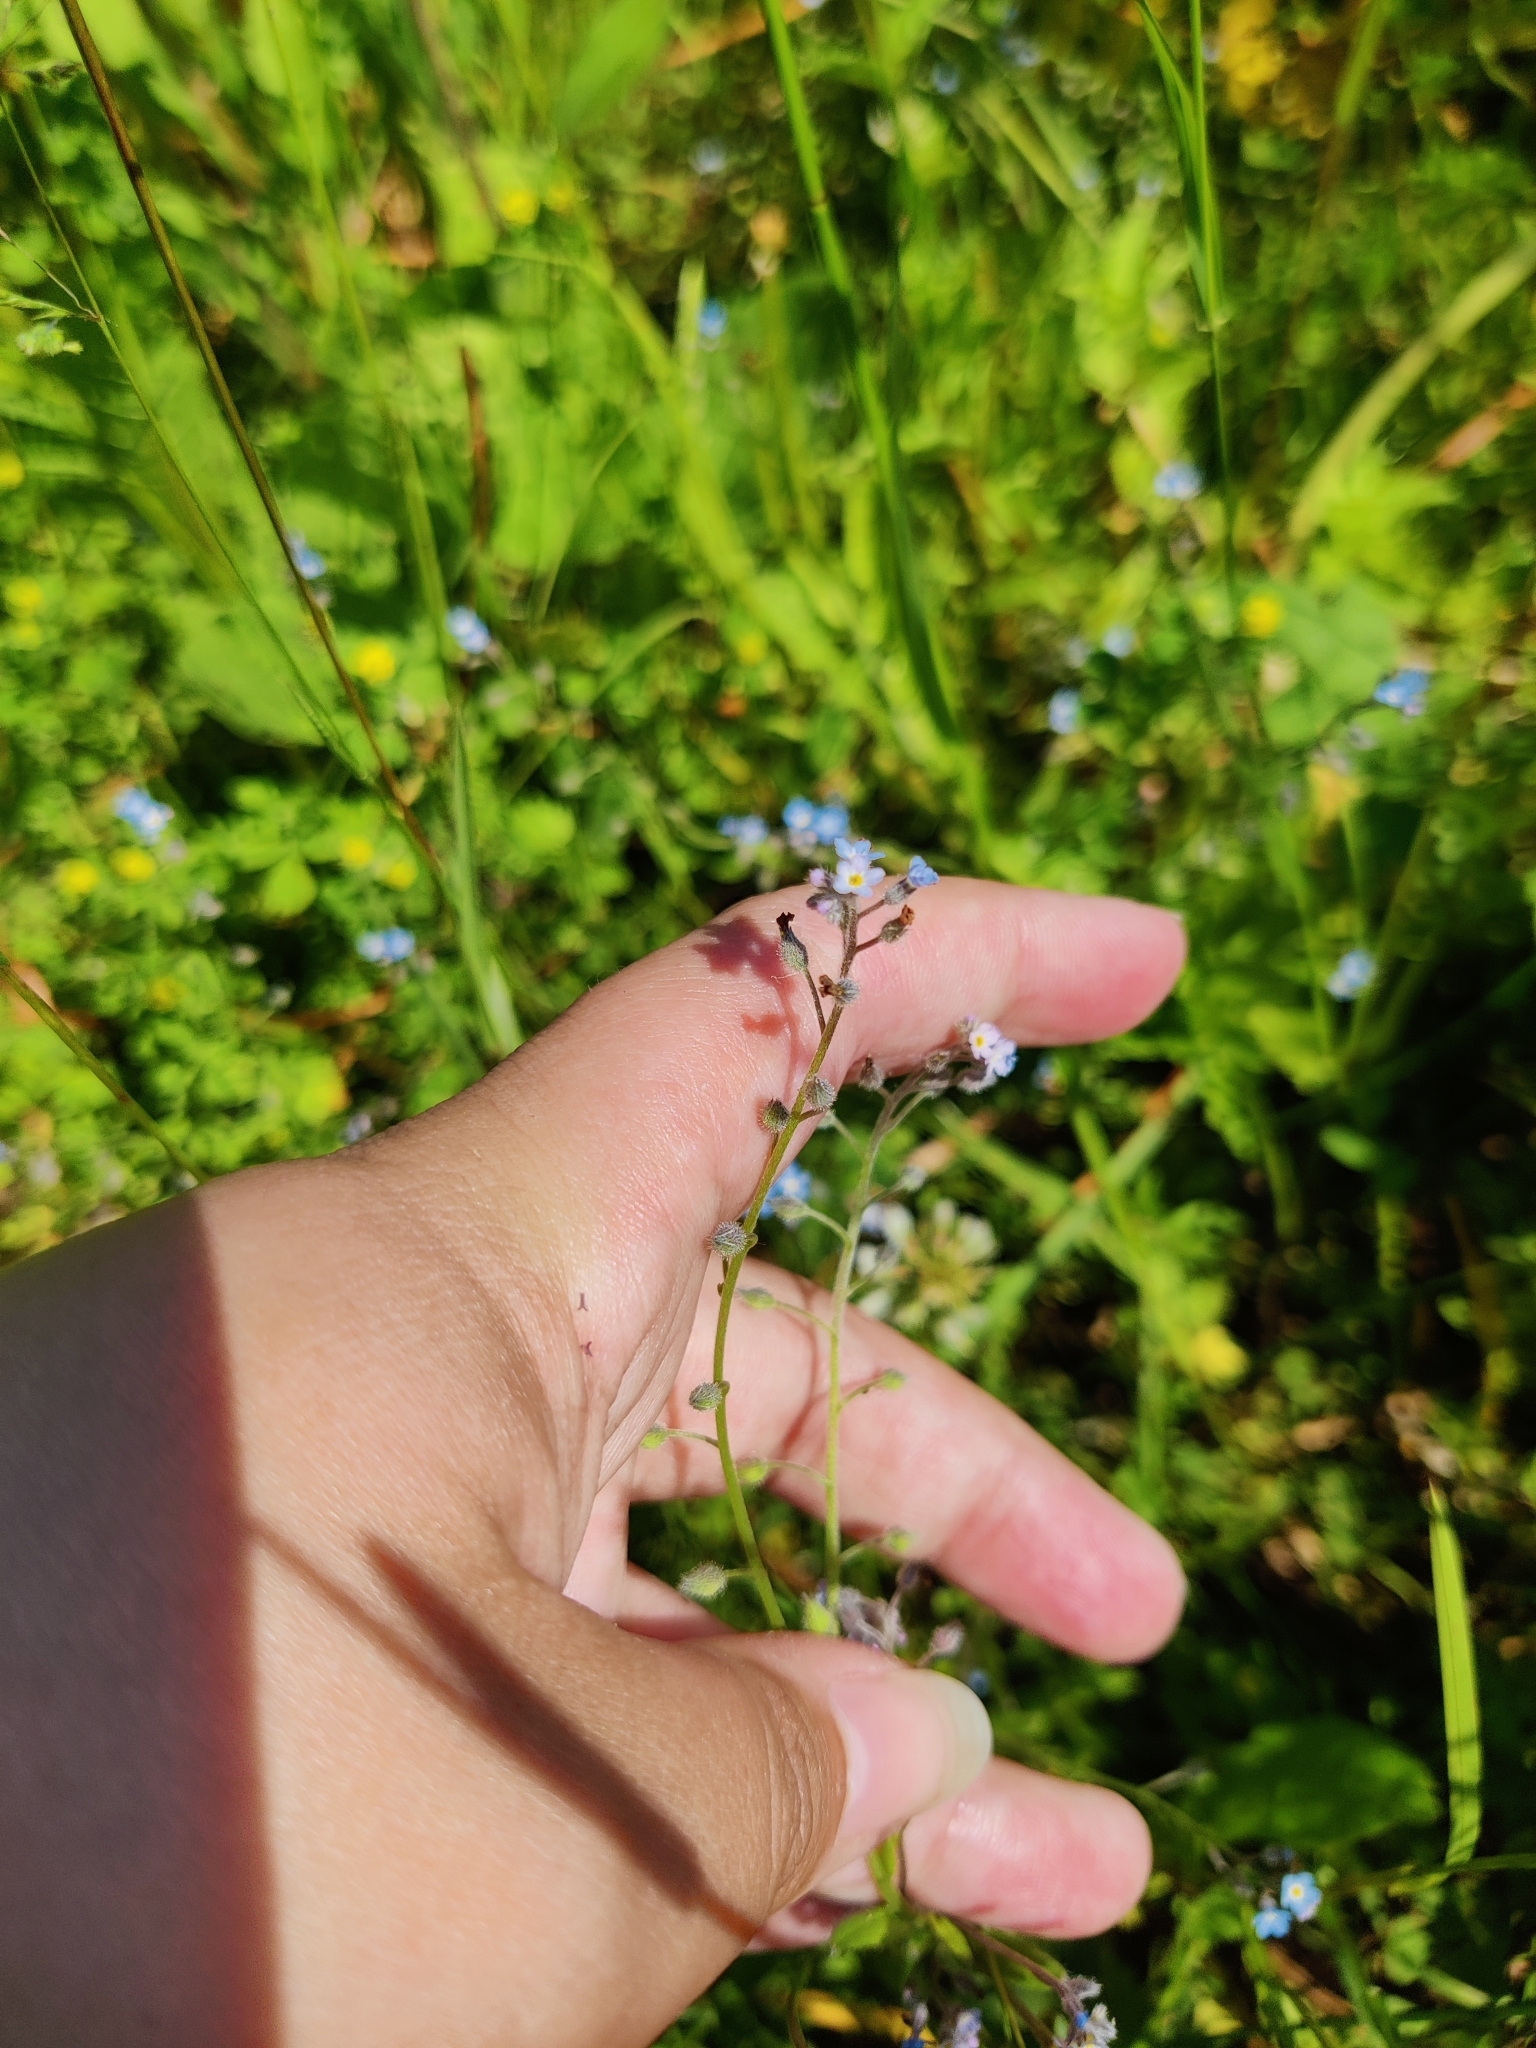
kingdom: Plantae
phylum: Tracheophyta
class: Magnoliopsida
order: Boraginales
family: Boraginaceae
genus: Myosotis
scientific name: Myosotis arvensis
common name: Field forget-me-not
